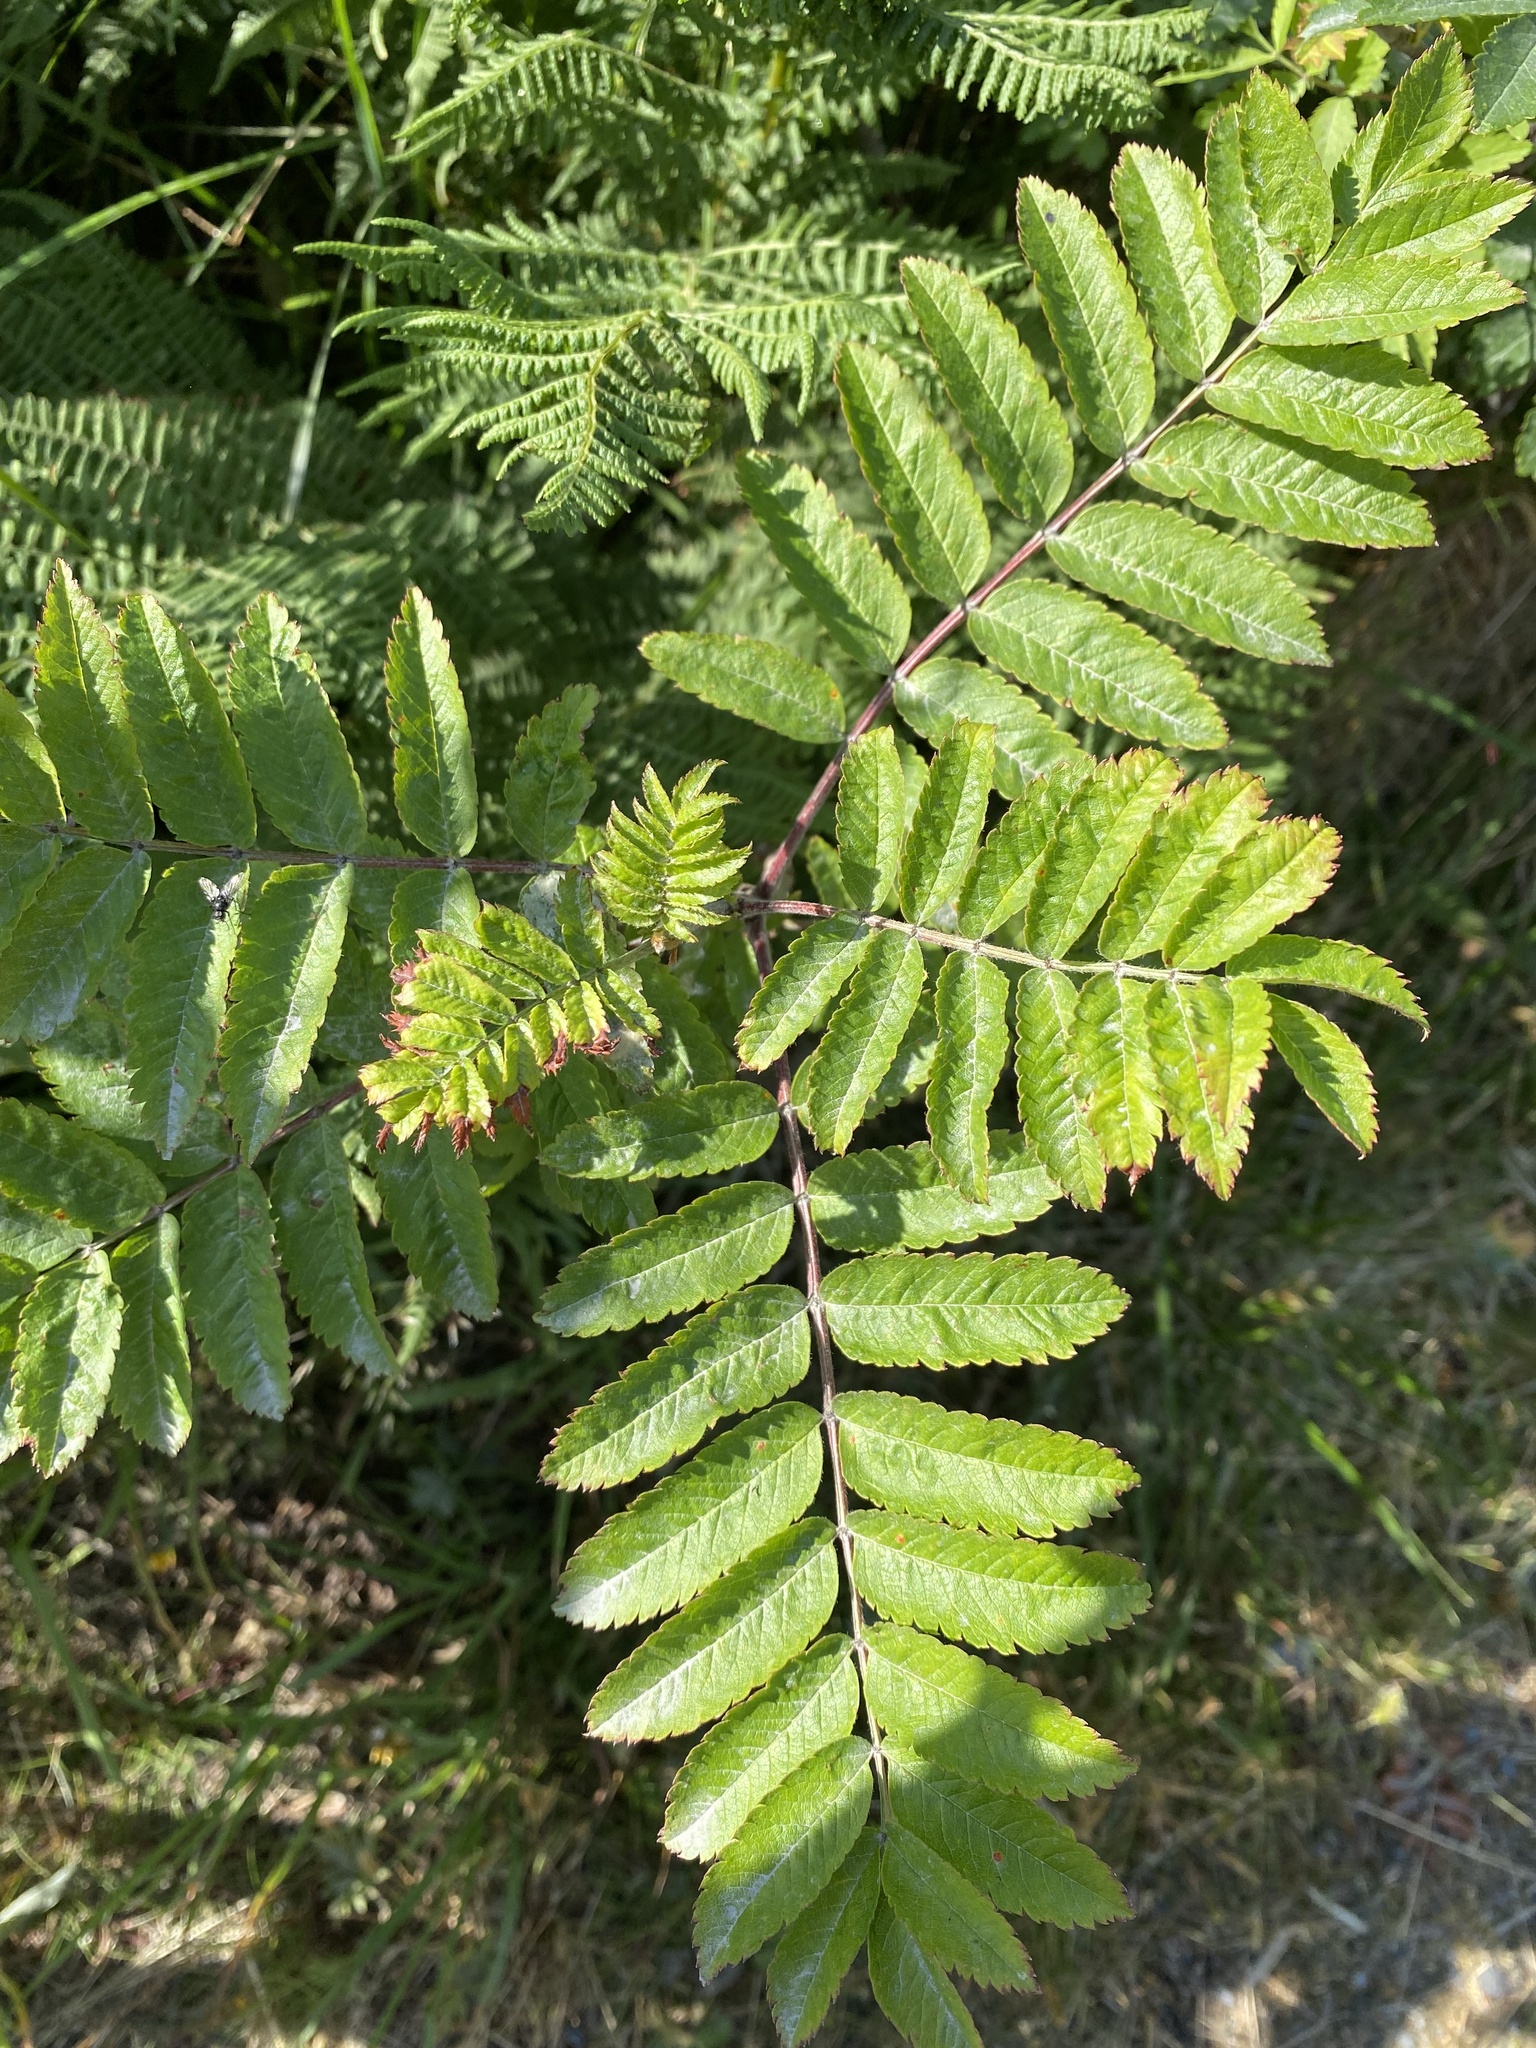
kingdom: Plantae
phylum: Tracheophyta
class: Magnoliopsida
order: Rosales
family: Rosaceae
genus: Sorbus
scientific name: Sorbus aucuparia
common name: Rowan
